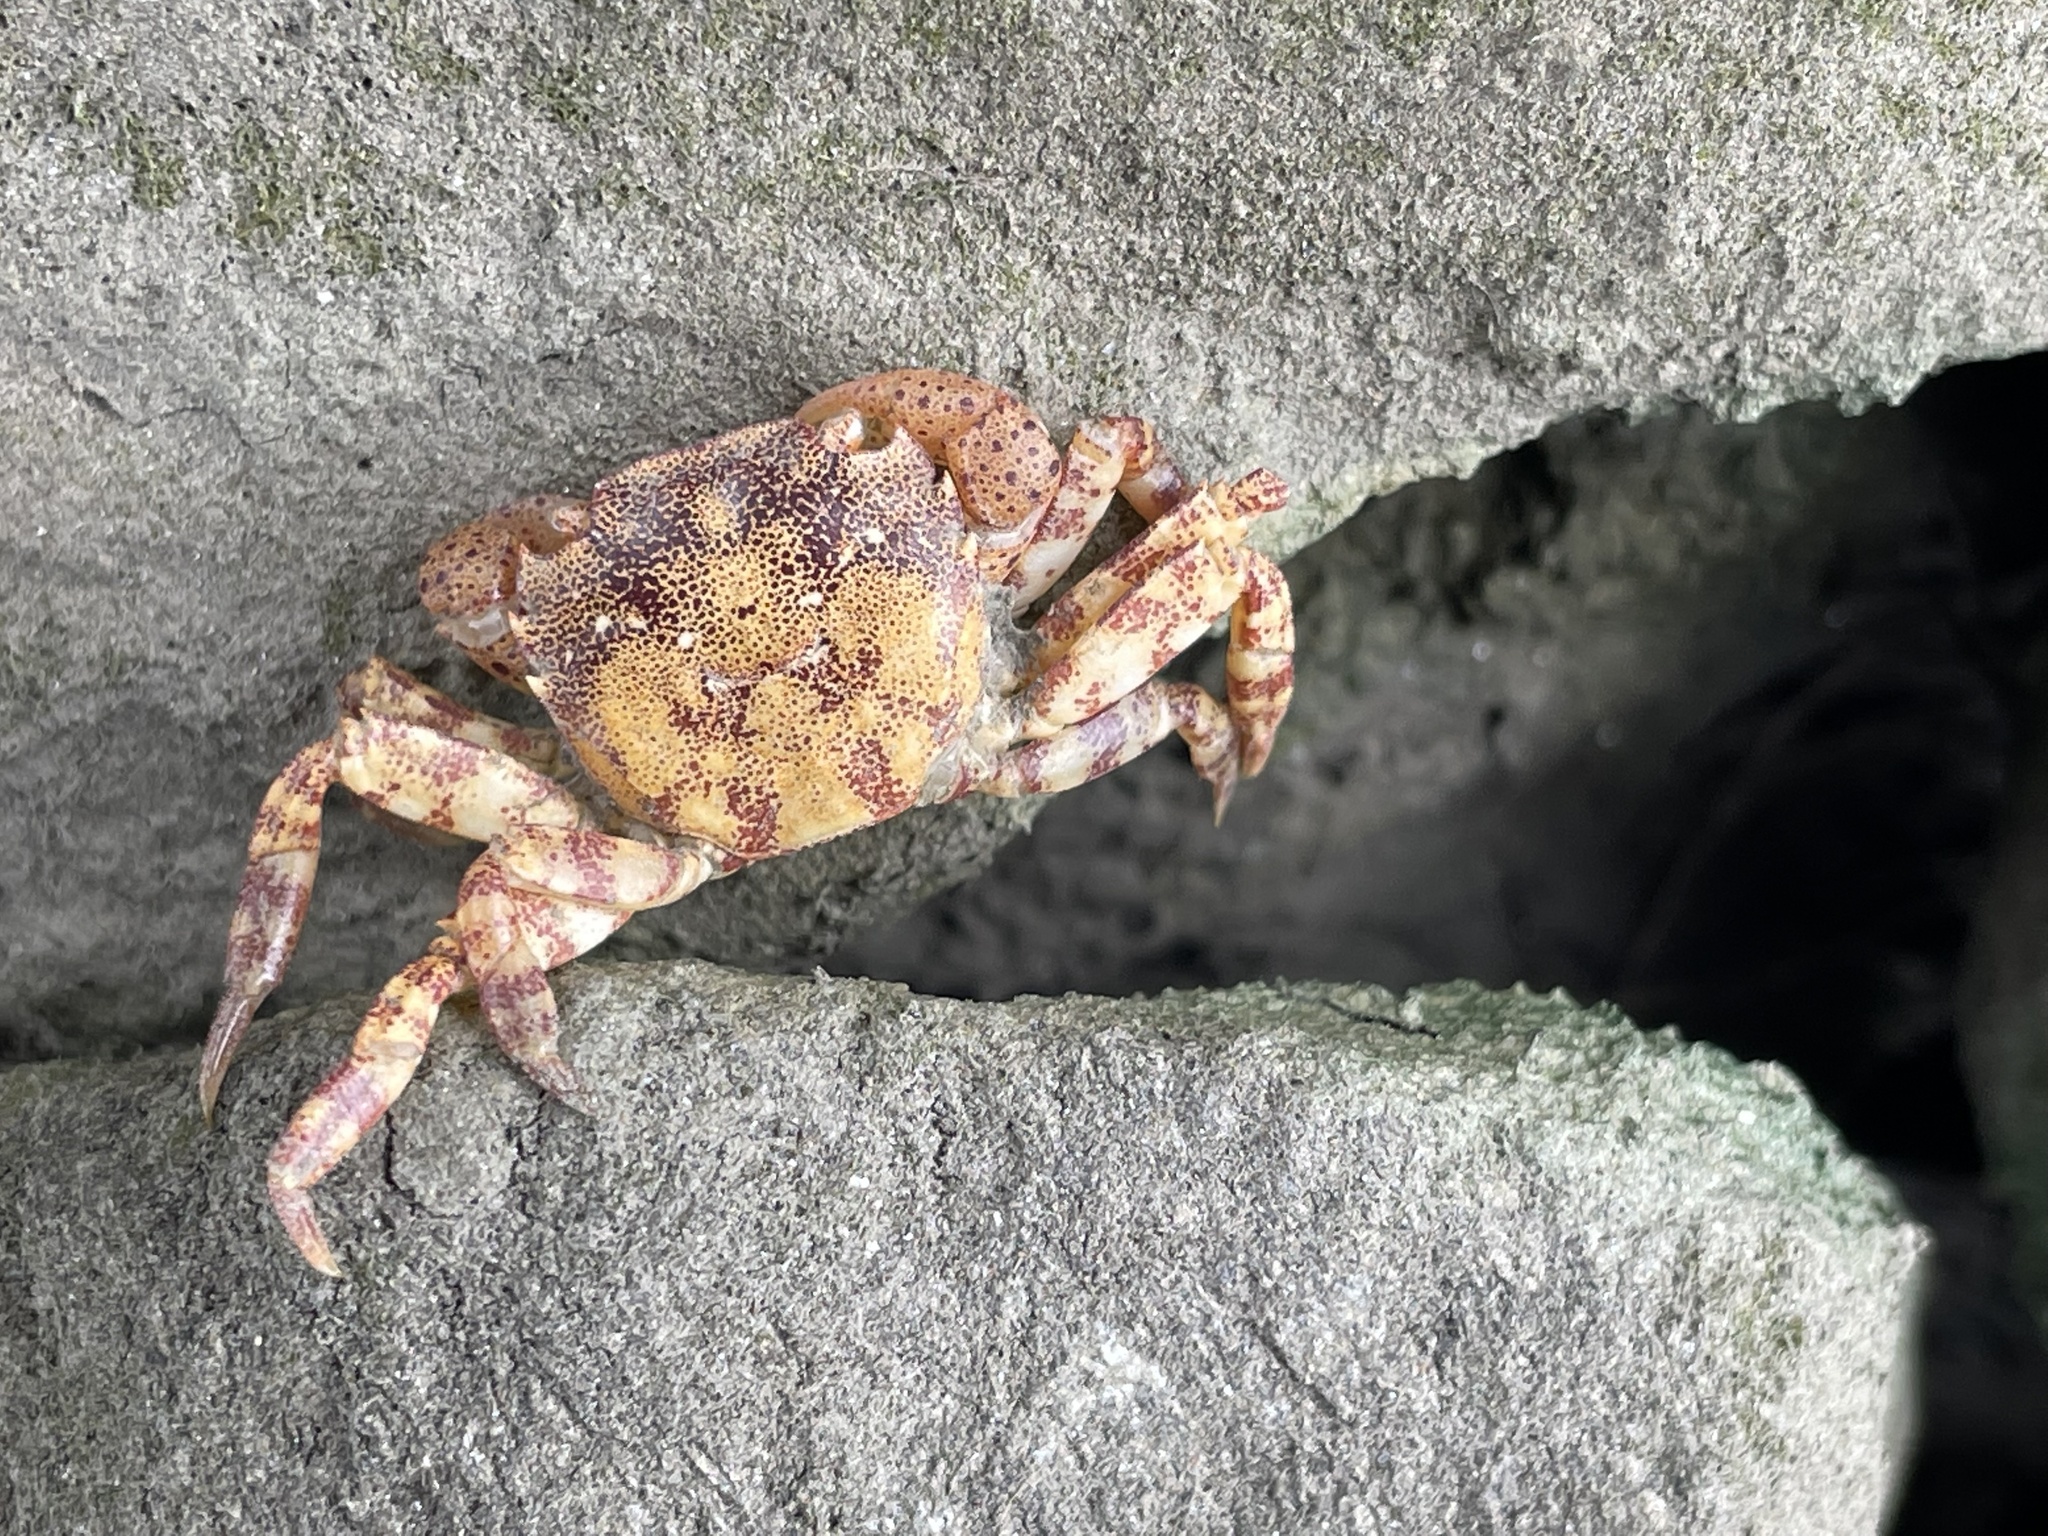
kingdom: Animalia
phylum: Arthropoda
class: Malacostraca
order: Decapoda
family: Varunidae
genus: Hemigrapsus
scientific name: Hemigrapsus sanguineus
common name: Asian shore crab
